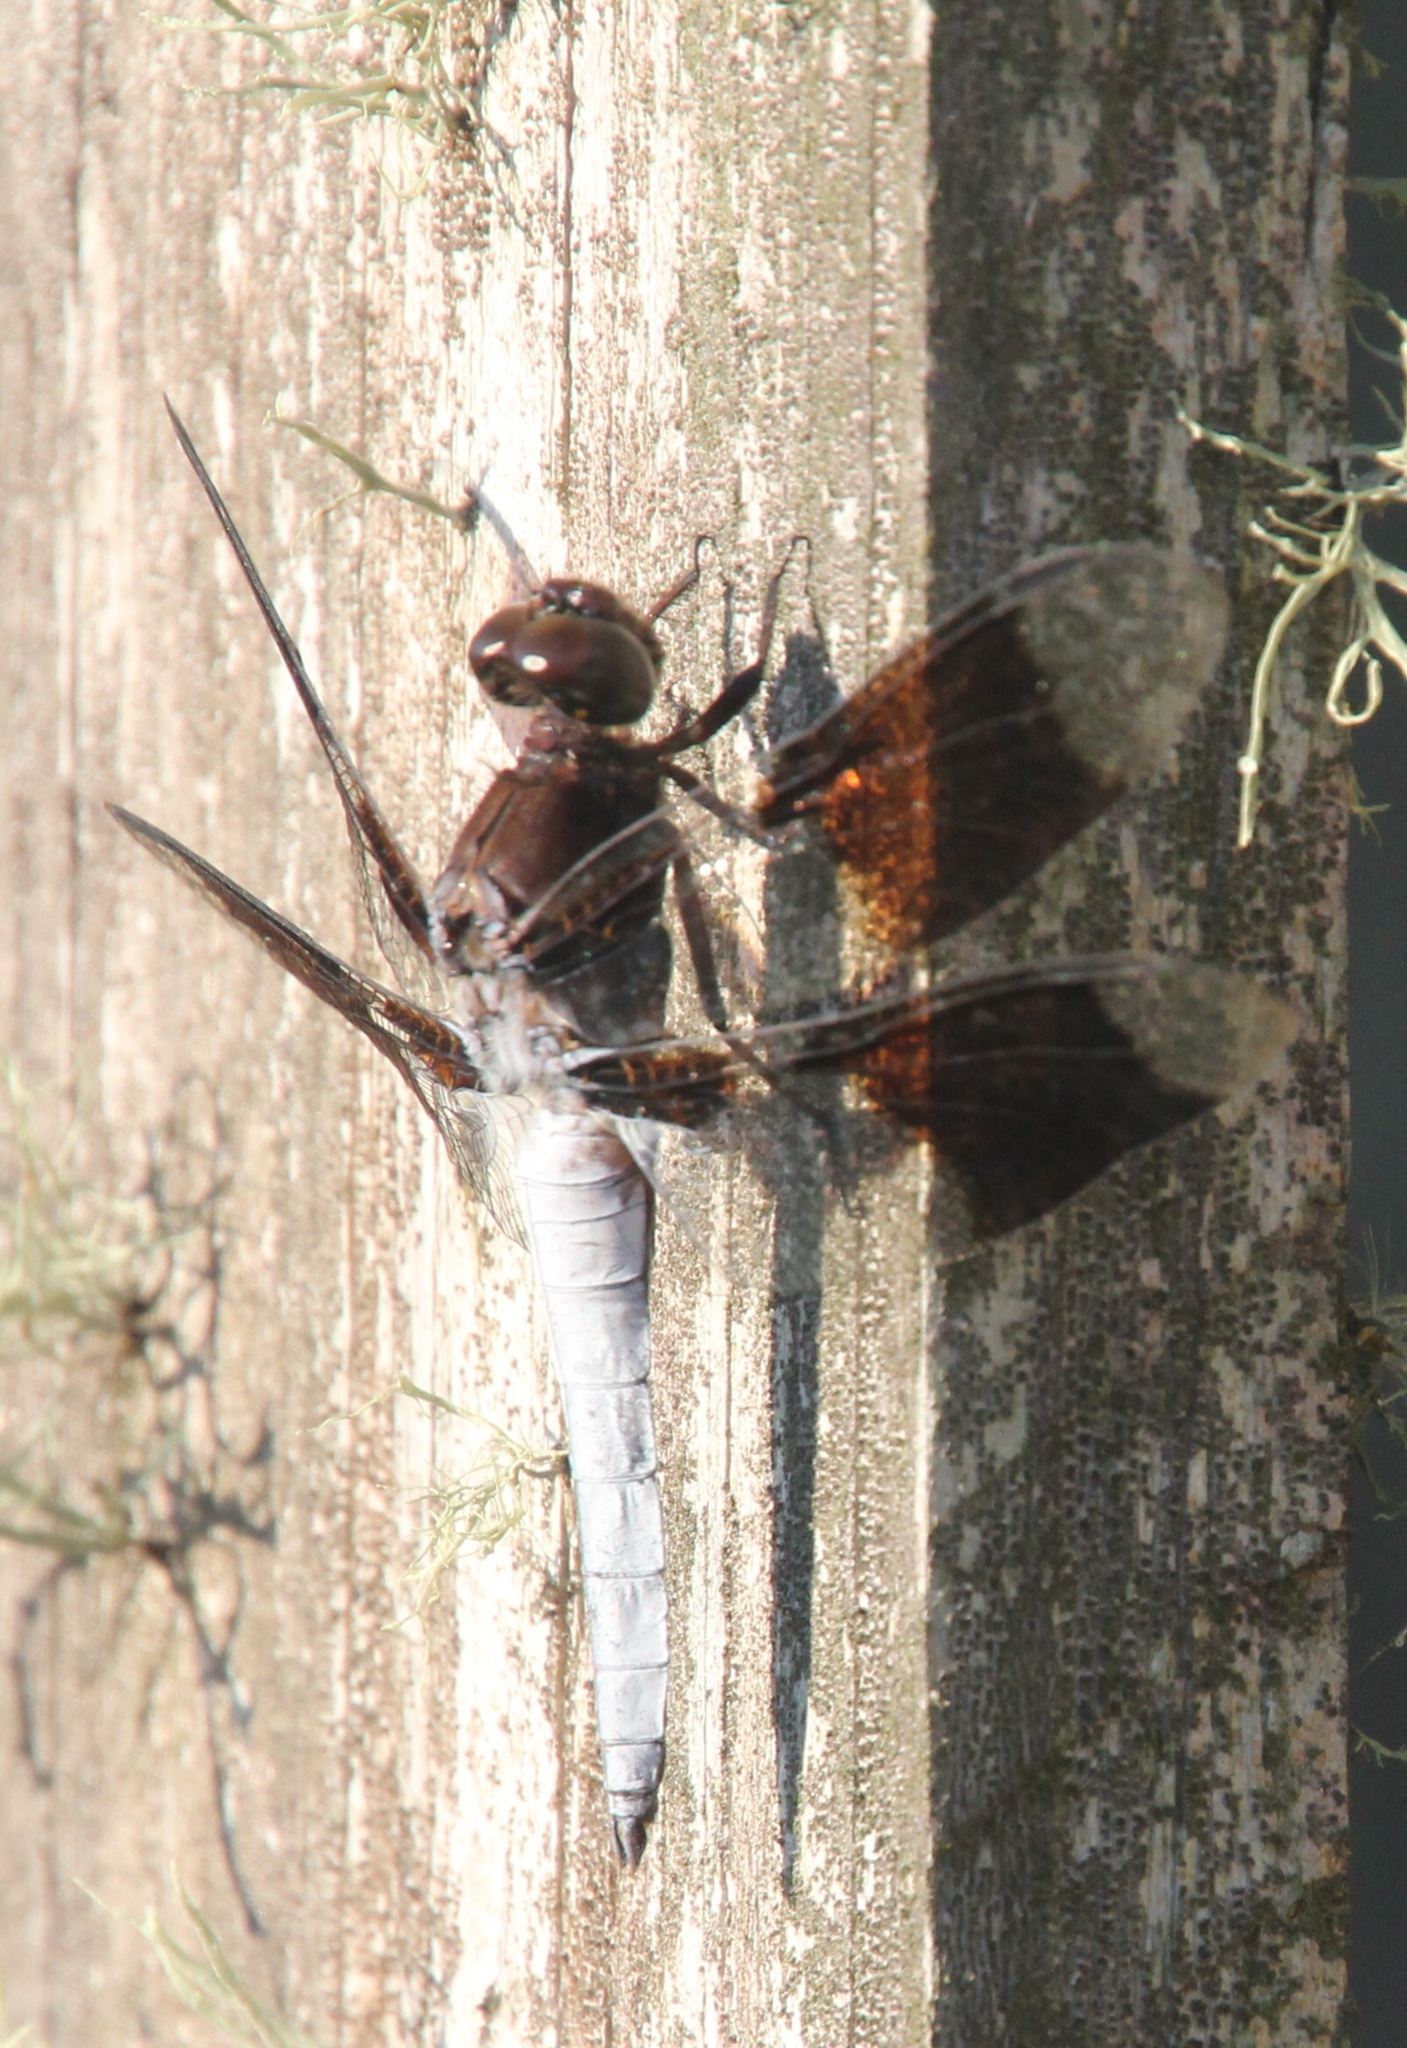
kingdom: Animalia
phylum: Arthropoda
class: Insecta
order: Odonata
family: Libellulidae
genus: Plathemis
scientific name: Plathemis lydia
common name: Common whitetail
